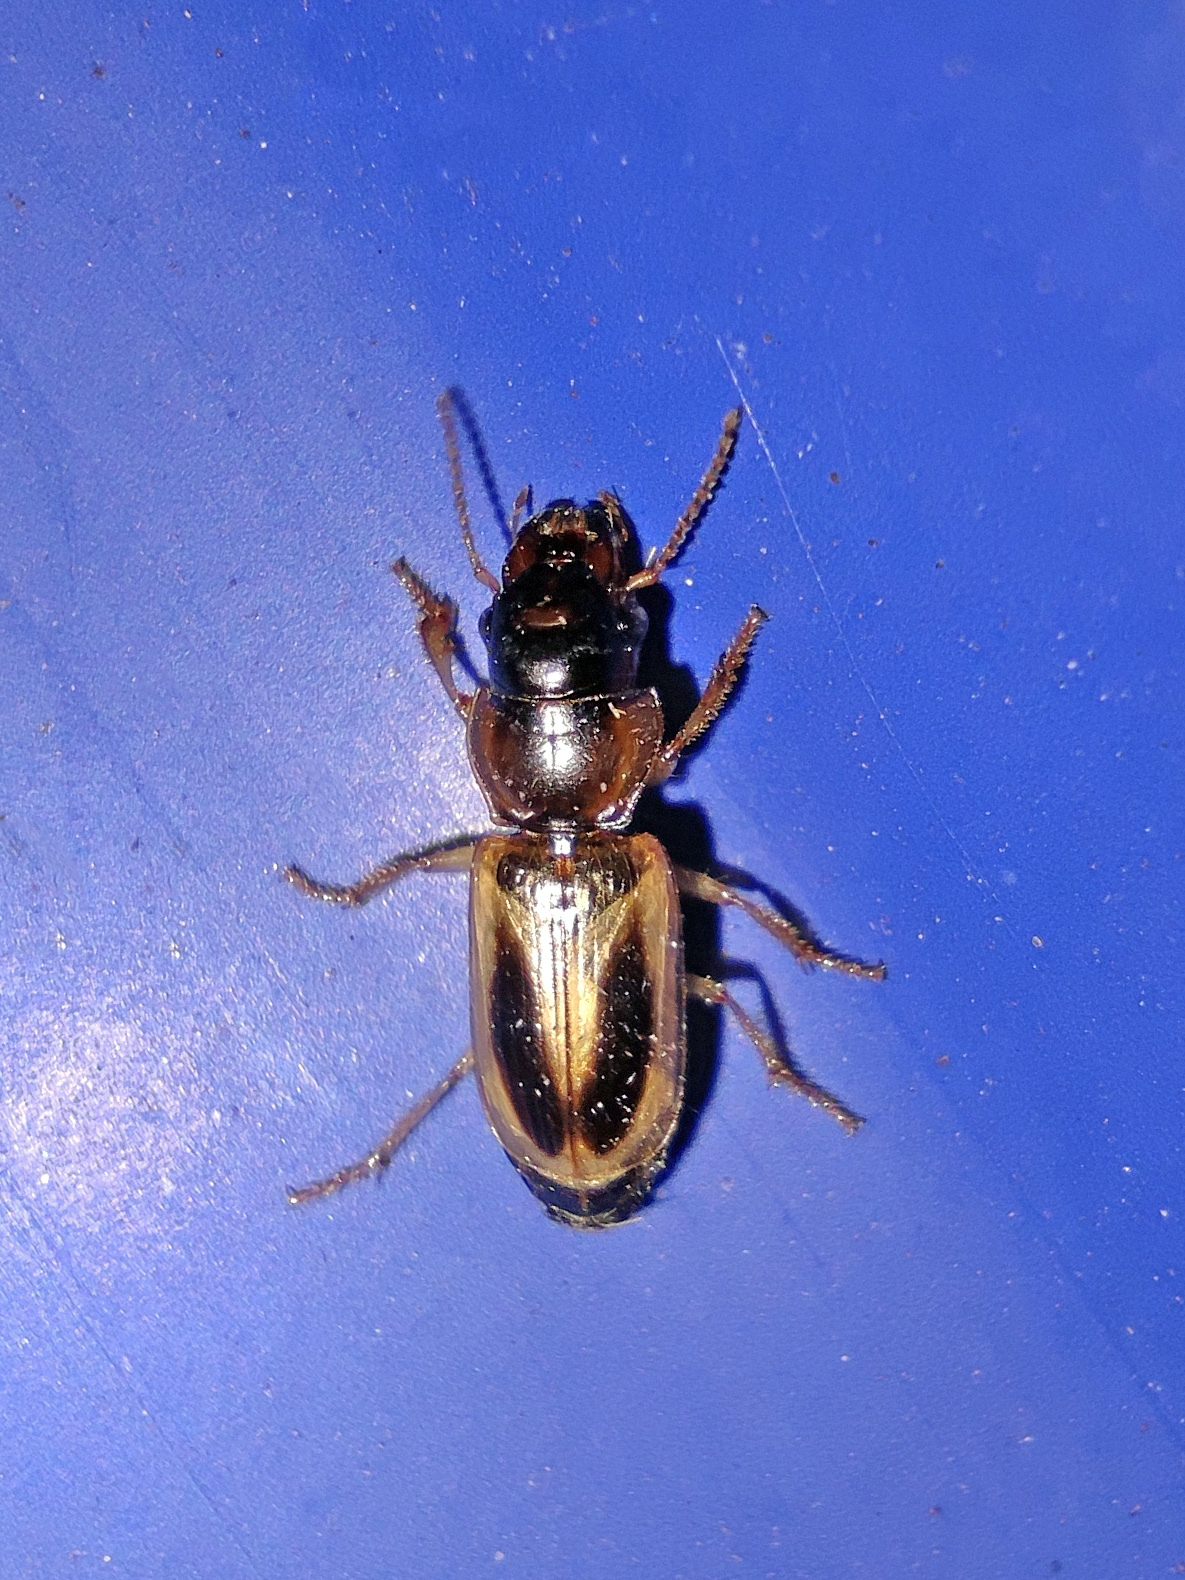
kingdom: Animalia
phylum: Arthropoda
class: Insecta
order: Coleoptera
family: Carabidae
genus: Daptus
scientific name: Daptus vittatus
